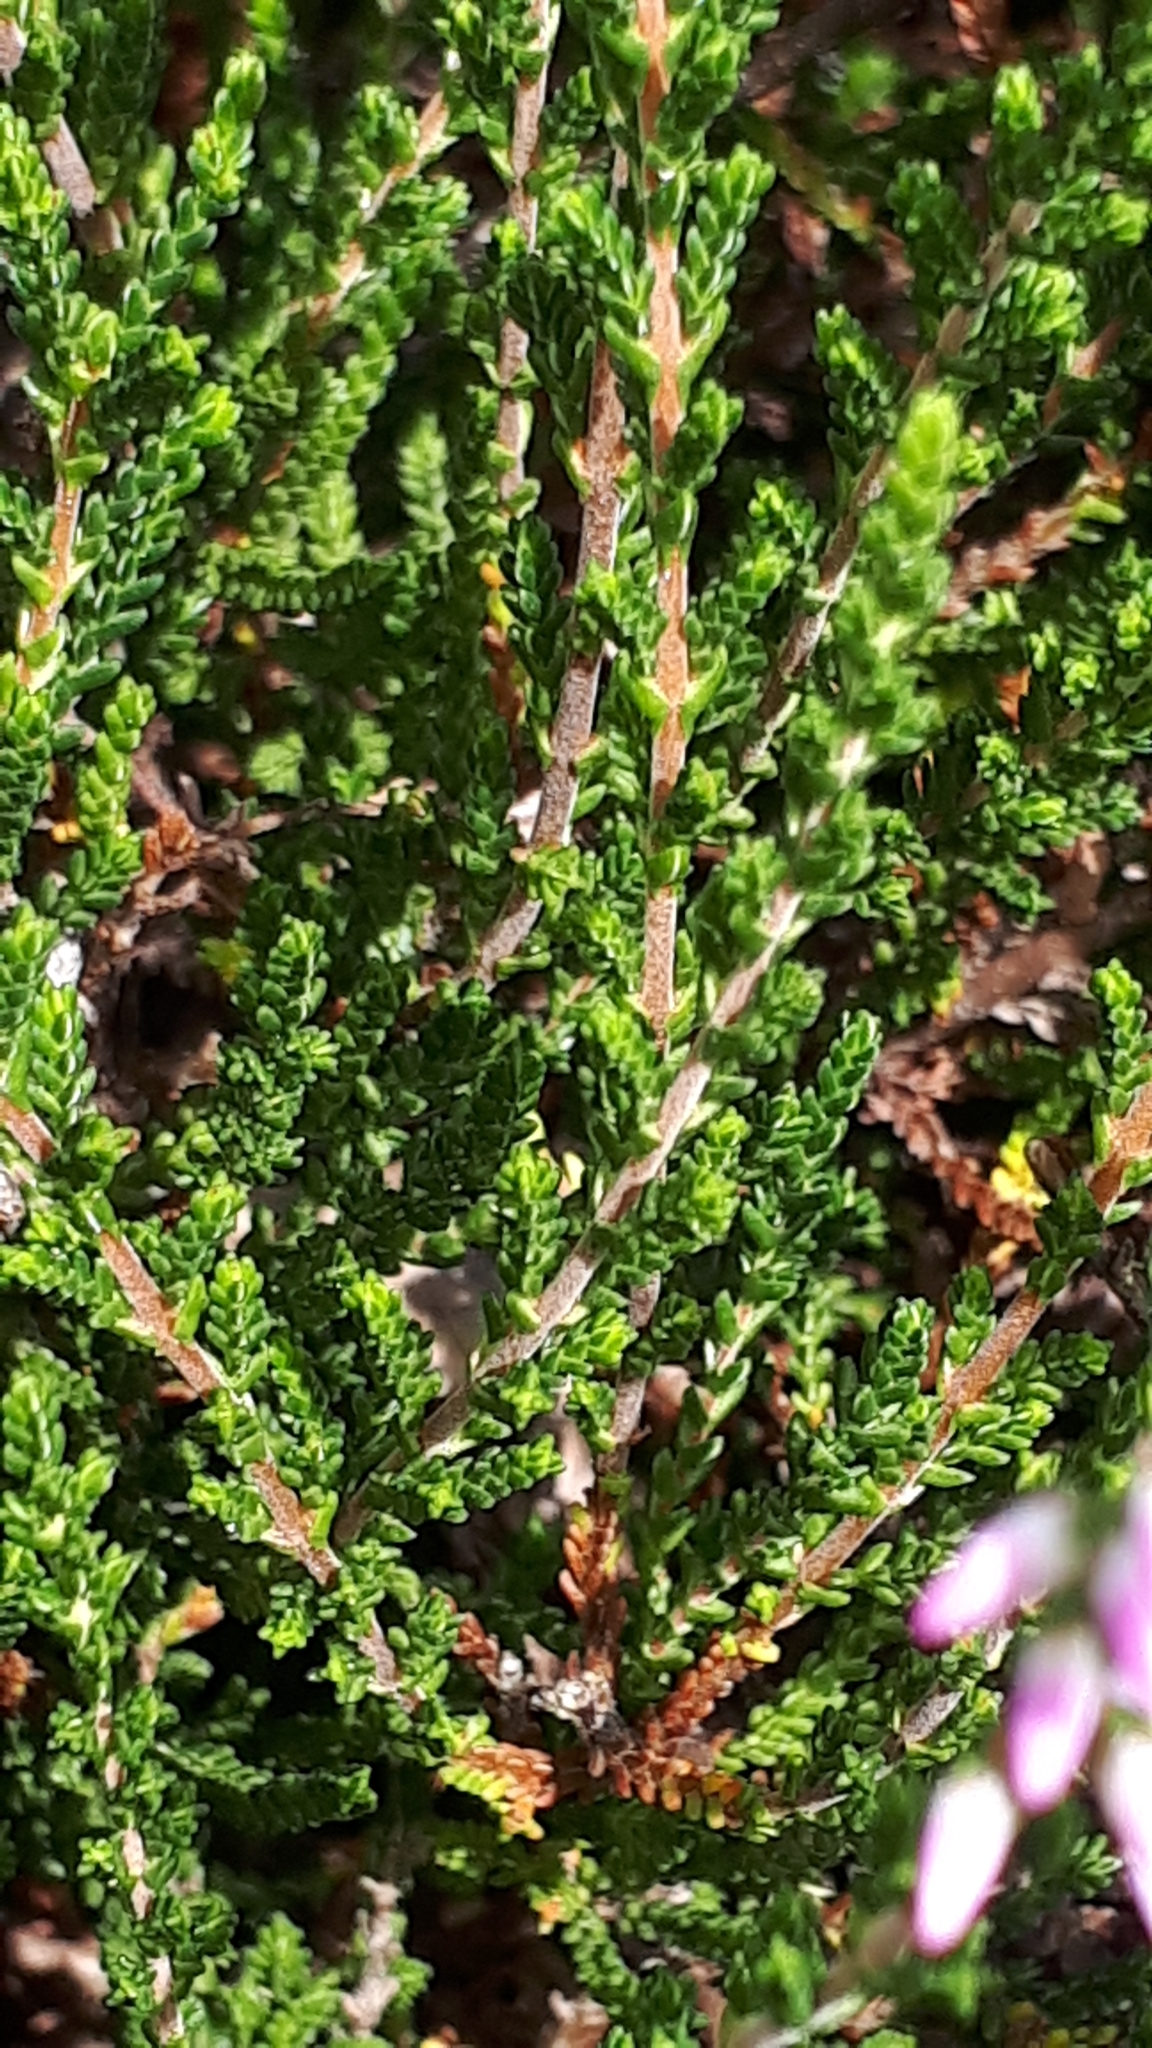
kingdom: Plantae
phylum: Tracheophyta
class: Magnoliopsida
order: Ericales
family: Ericaceae
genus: Calluna
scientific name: Calluna vulgaris
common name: Heather
